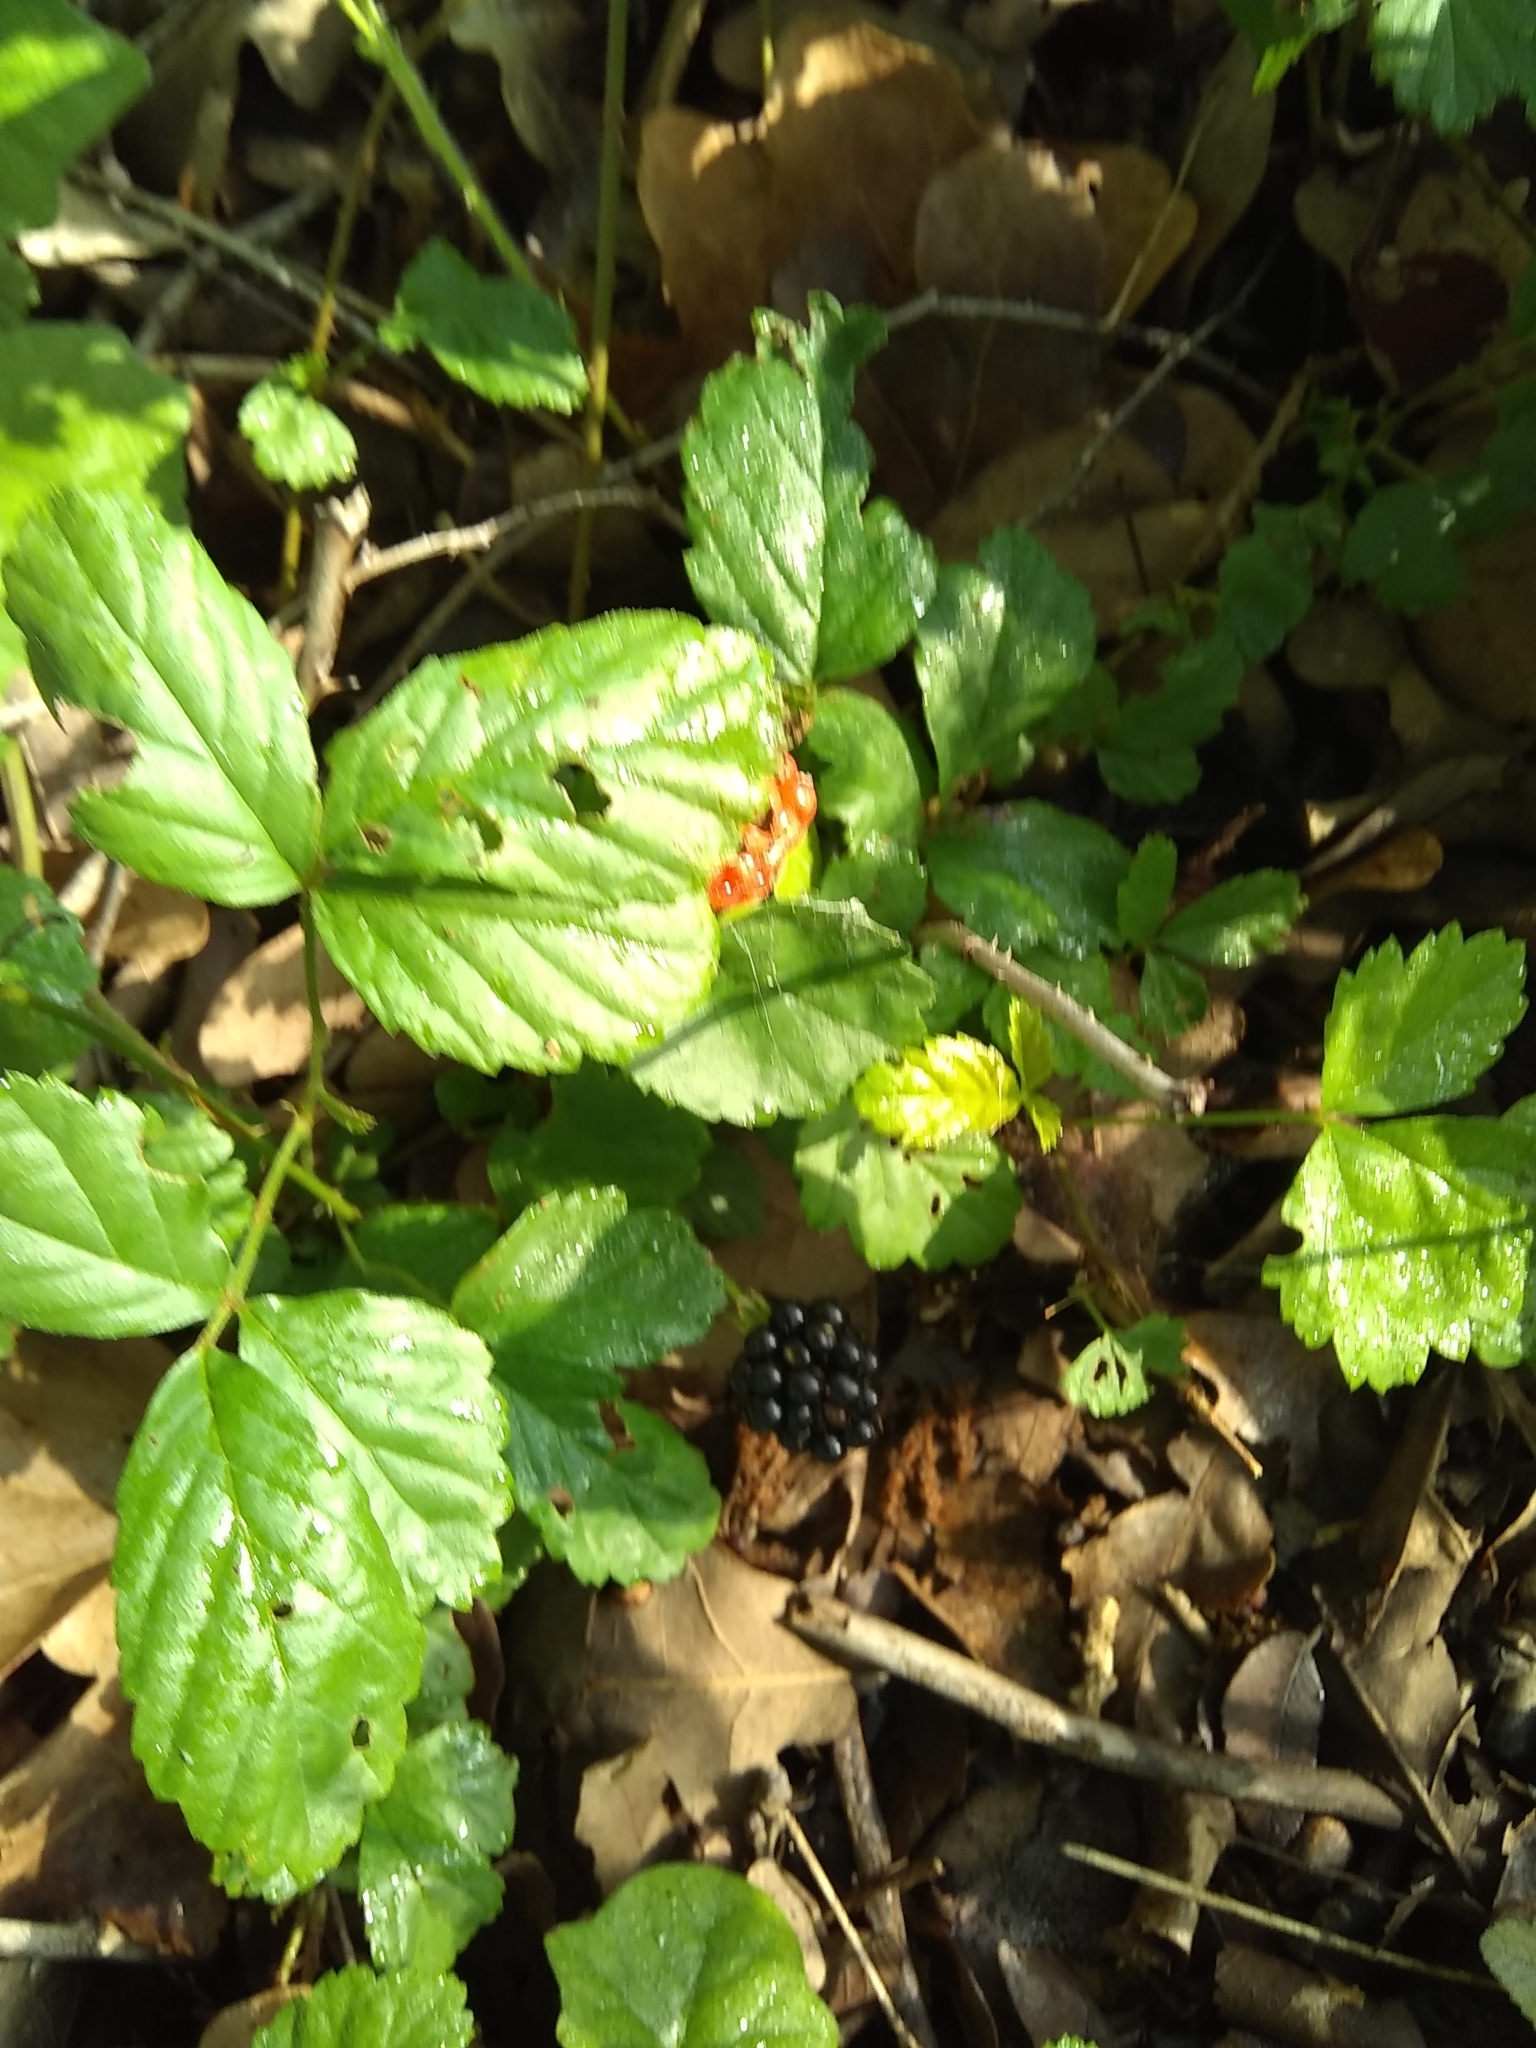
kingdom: Plantae
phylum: Tracheophyta
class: Magnoliopsida
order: Rosales
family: Rosaceae
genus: Rubus
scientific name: Rubus trivialis
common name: Southern dewberry
